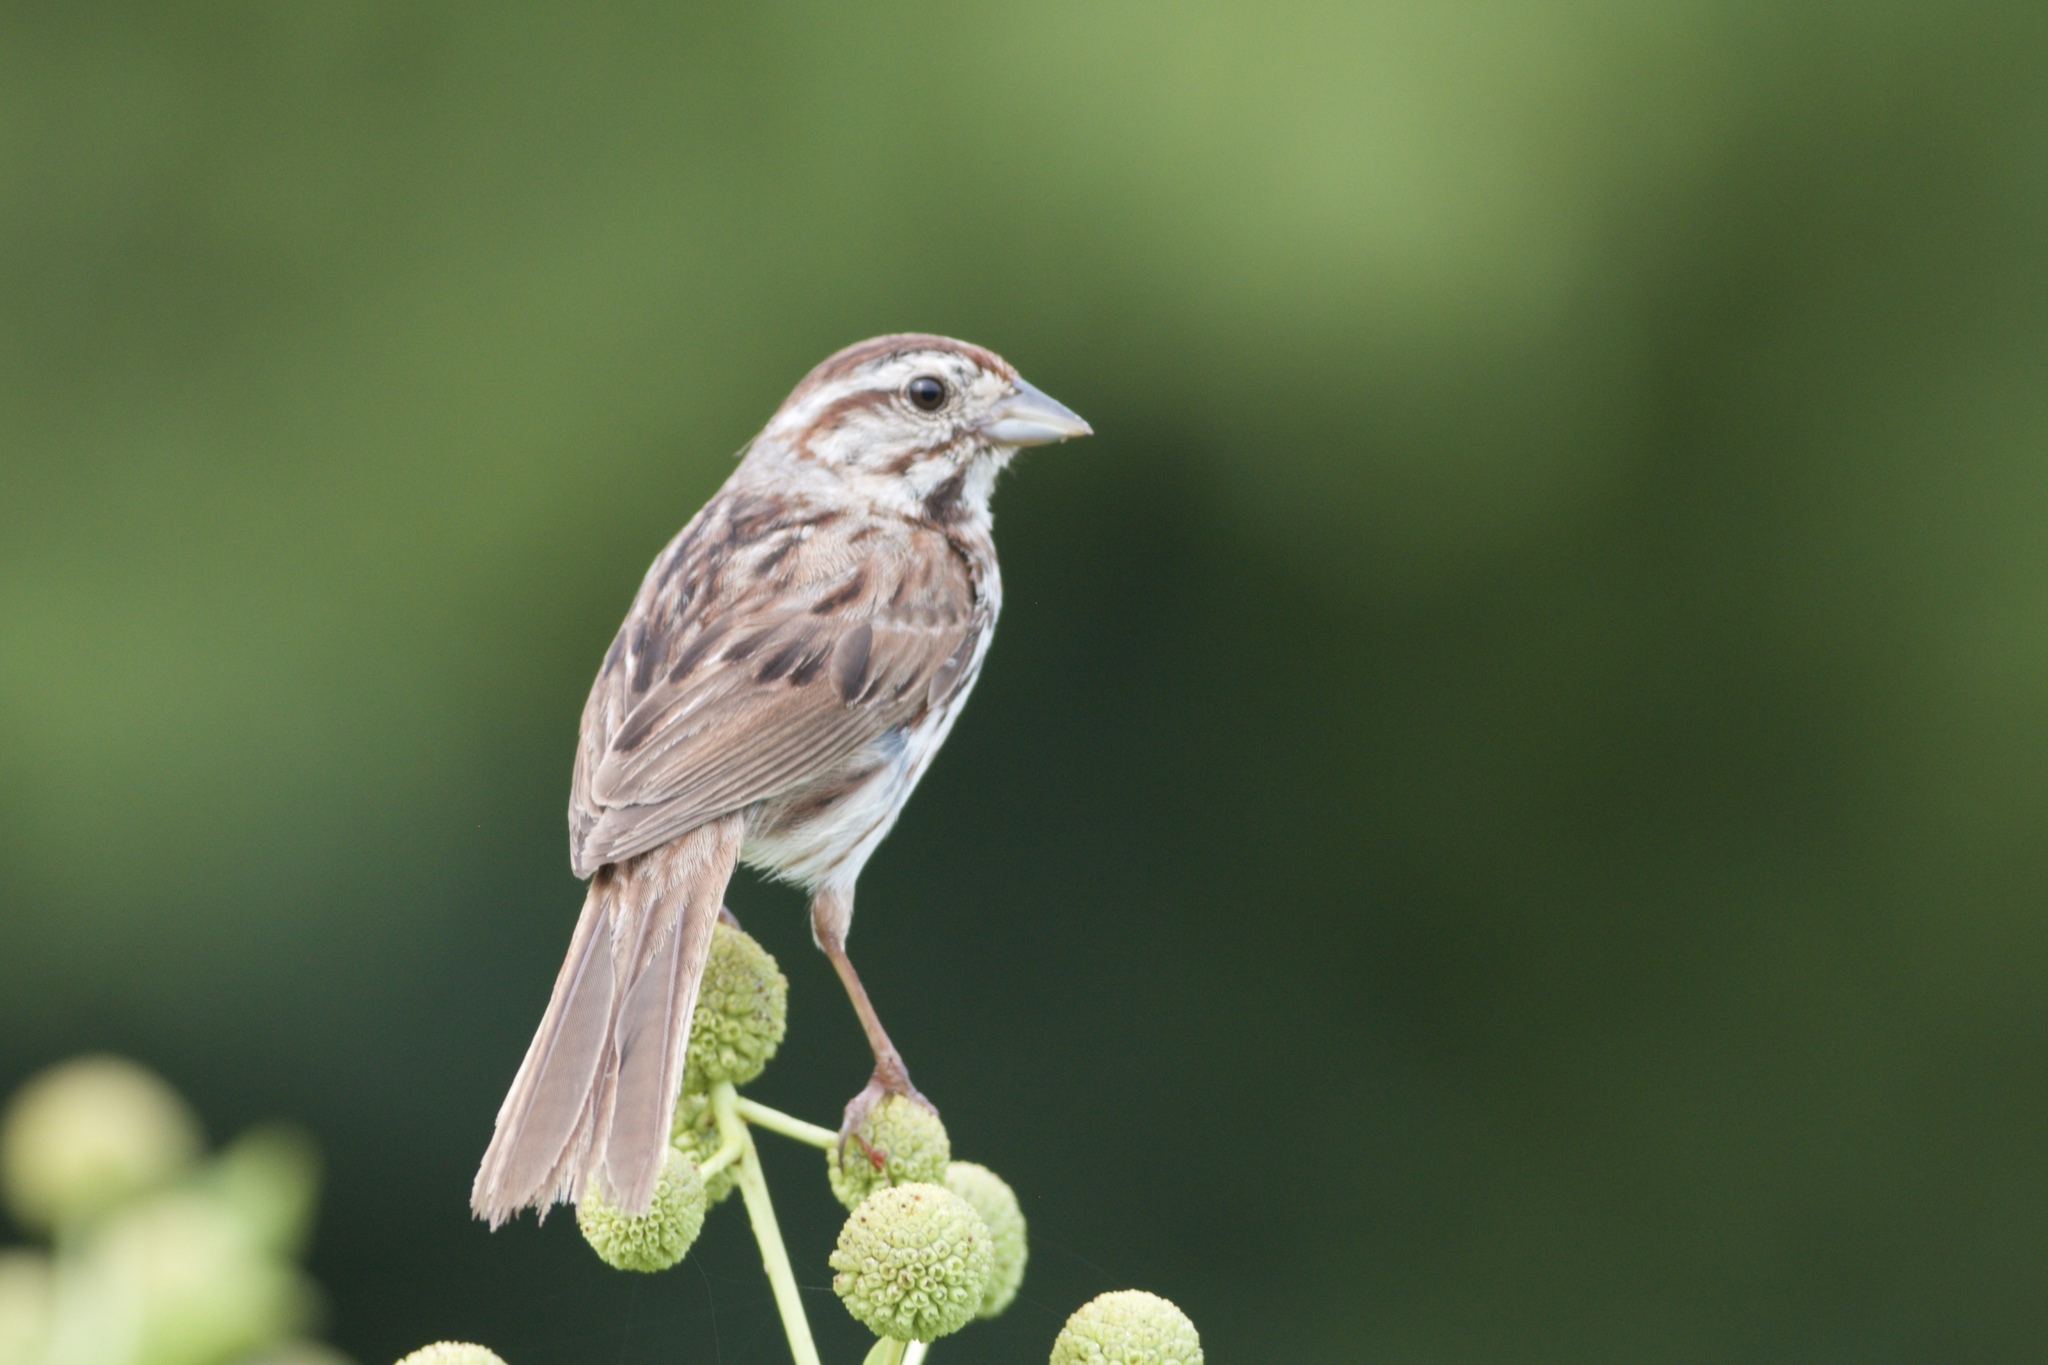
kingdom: Animalia
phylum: Chordata
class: Aves
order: Passeriformes
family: Passerellidae
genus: Melospiza
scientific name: Melospiza melodia
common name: Song sparrow
